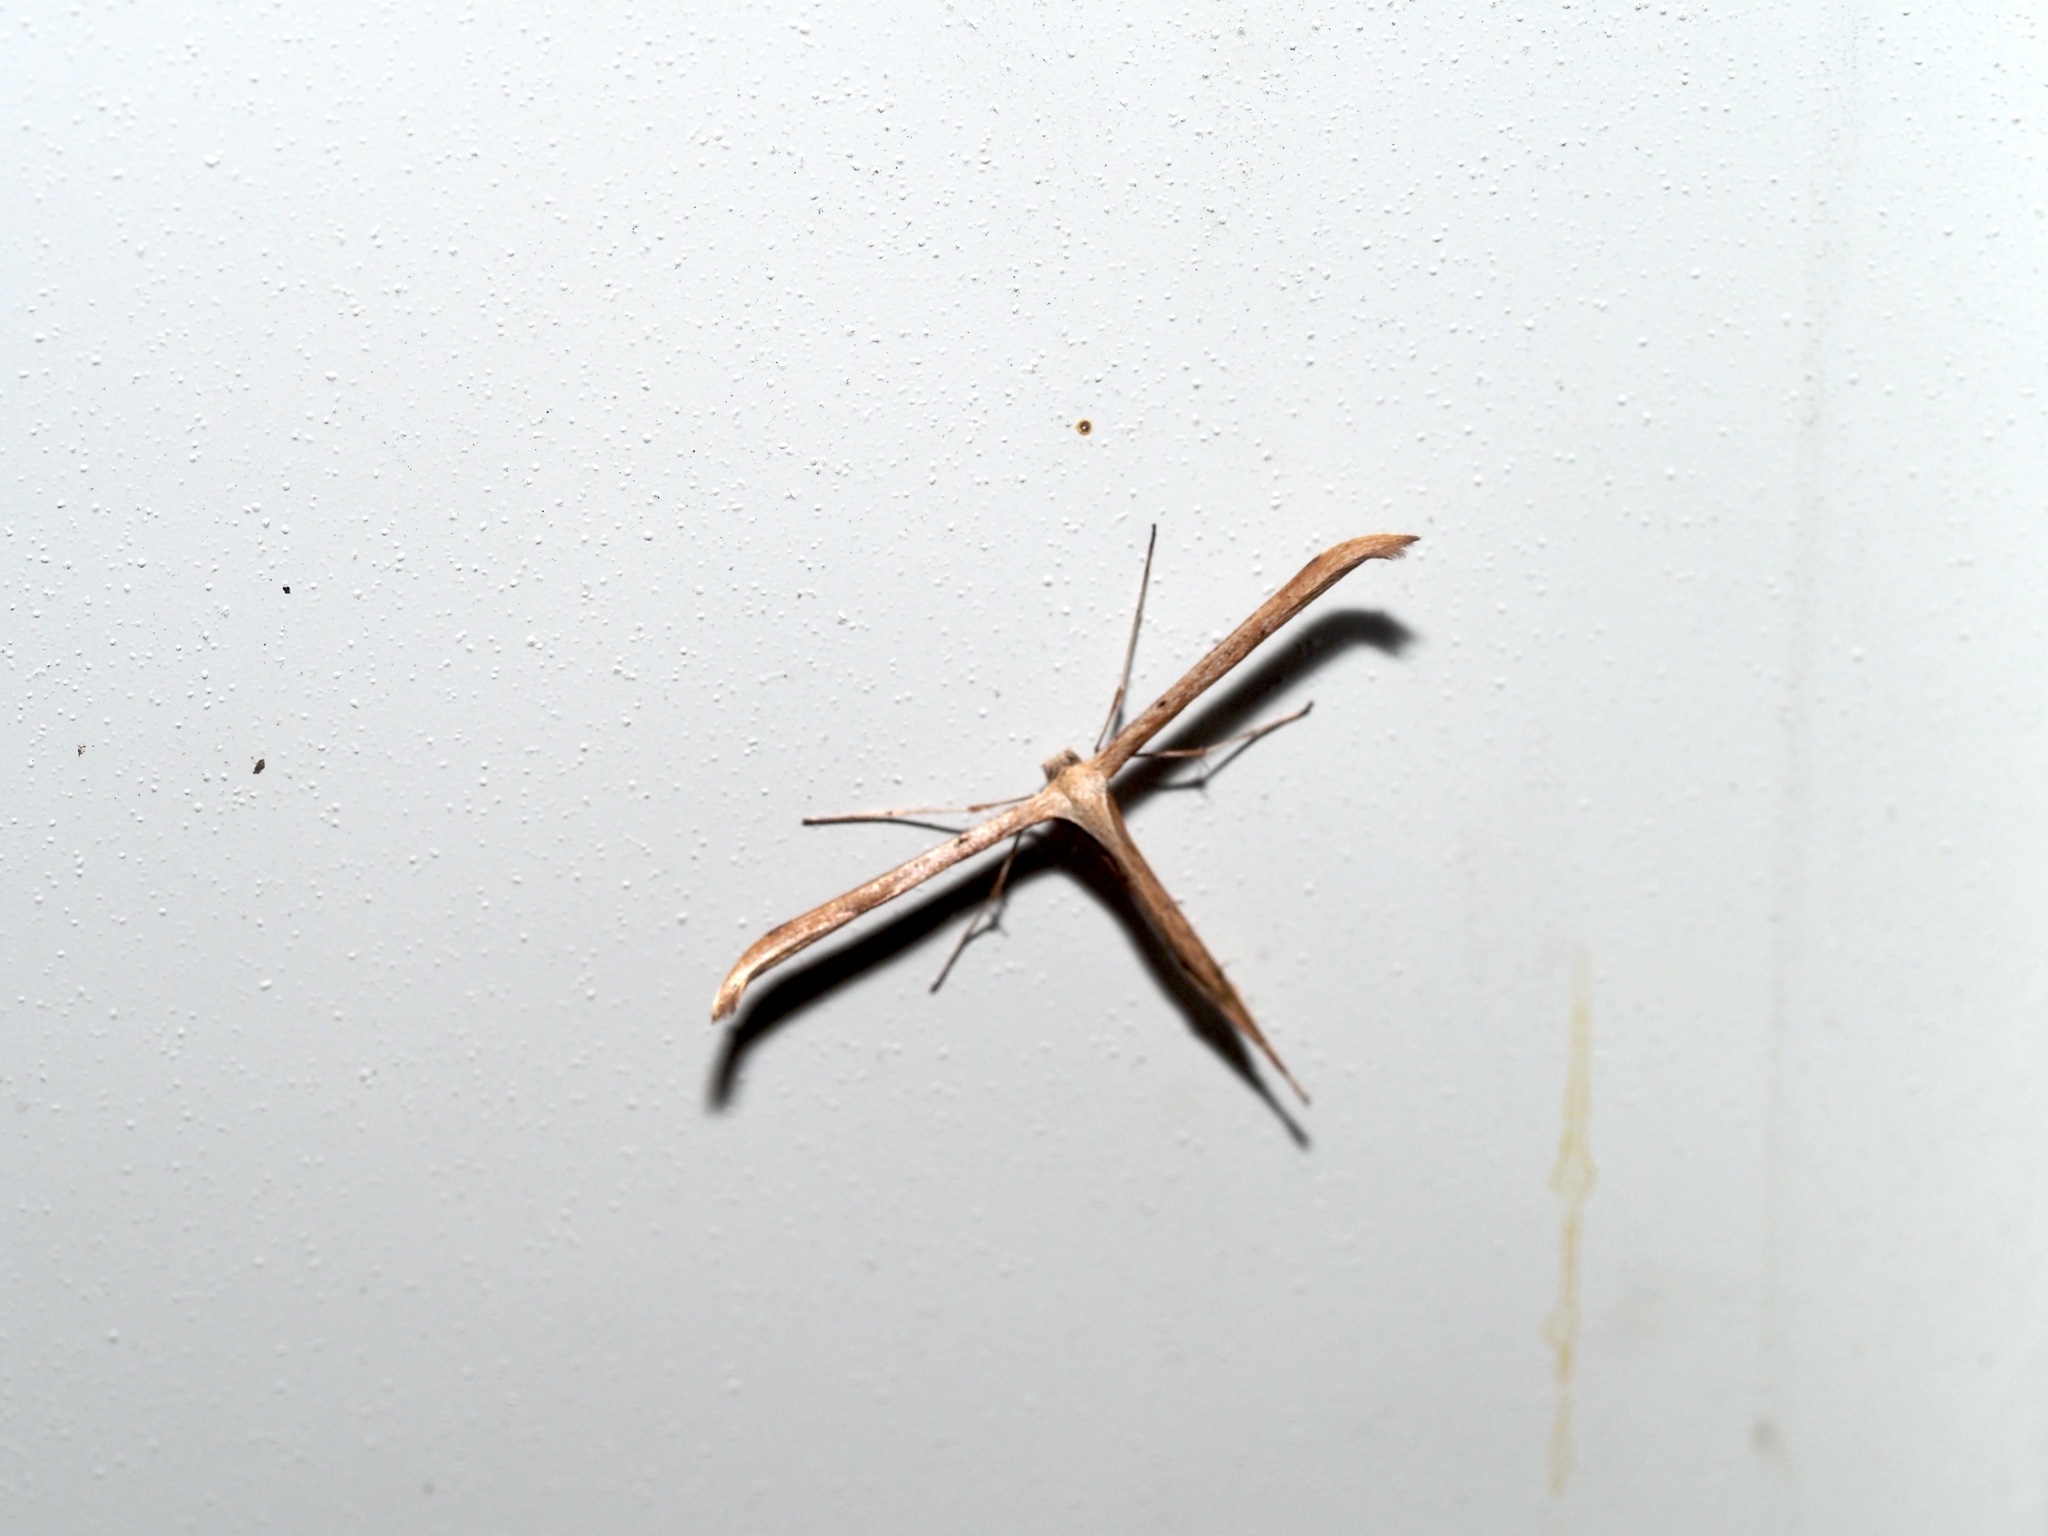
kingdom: Animalia
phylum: Arthropoda
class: Insecta
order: Lepidoptera
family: Pterophoridae
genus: Emmelina
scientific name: Emmelina monodactyla
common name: Common plume
